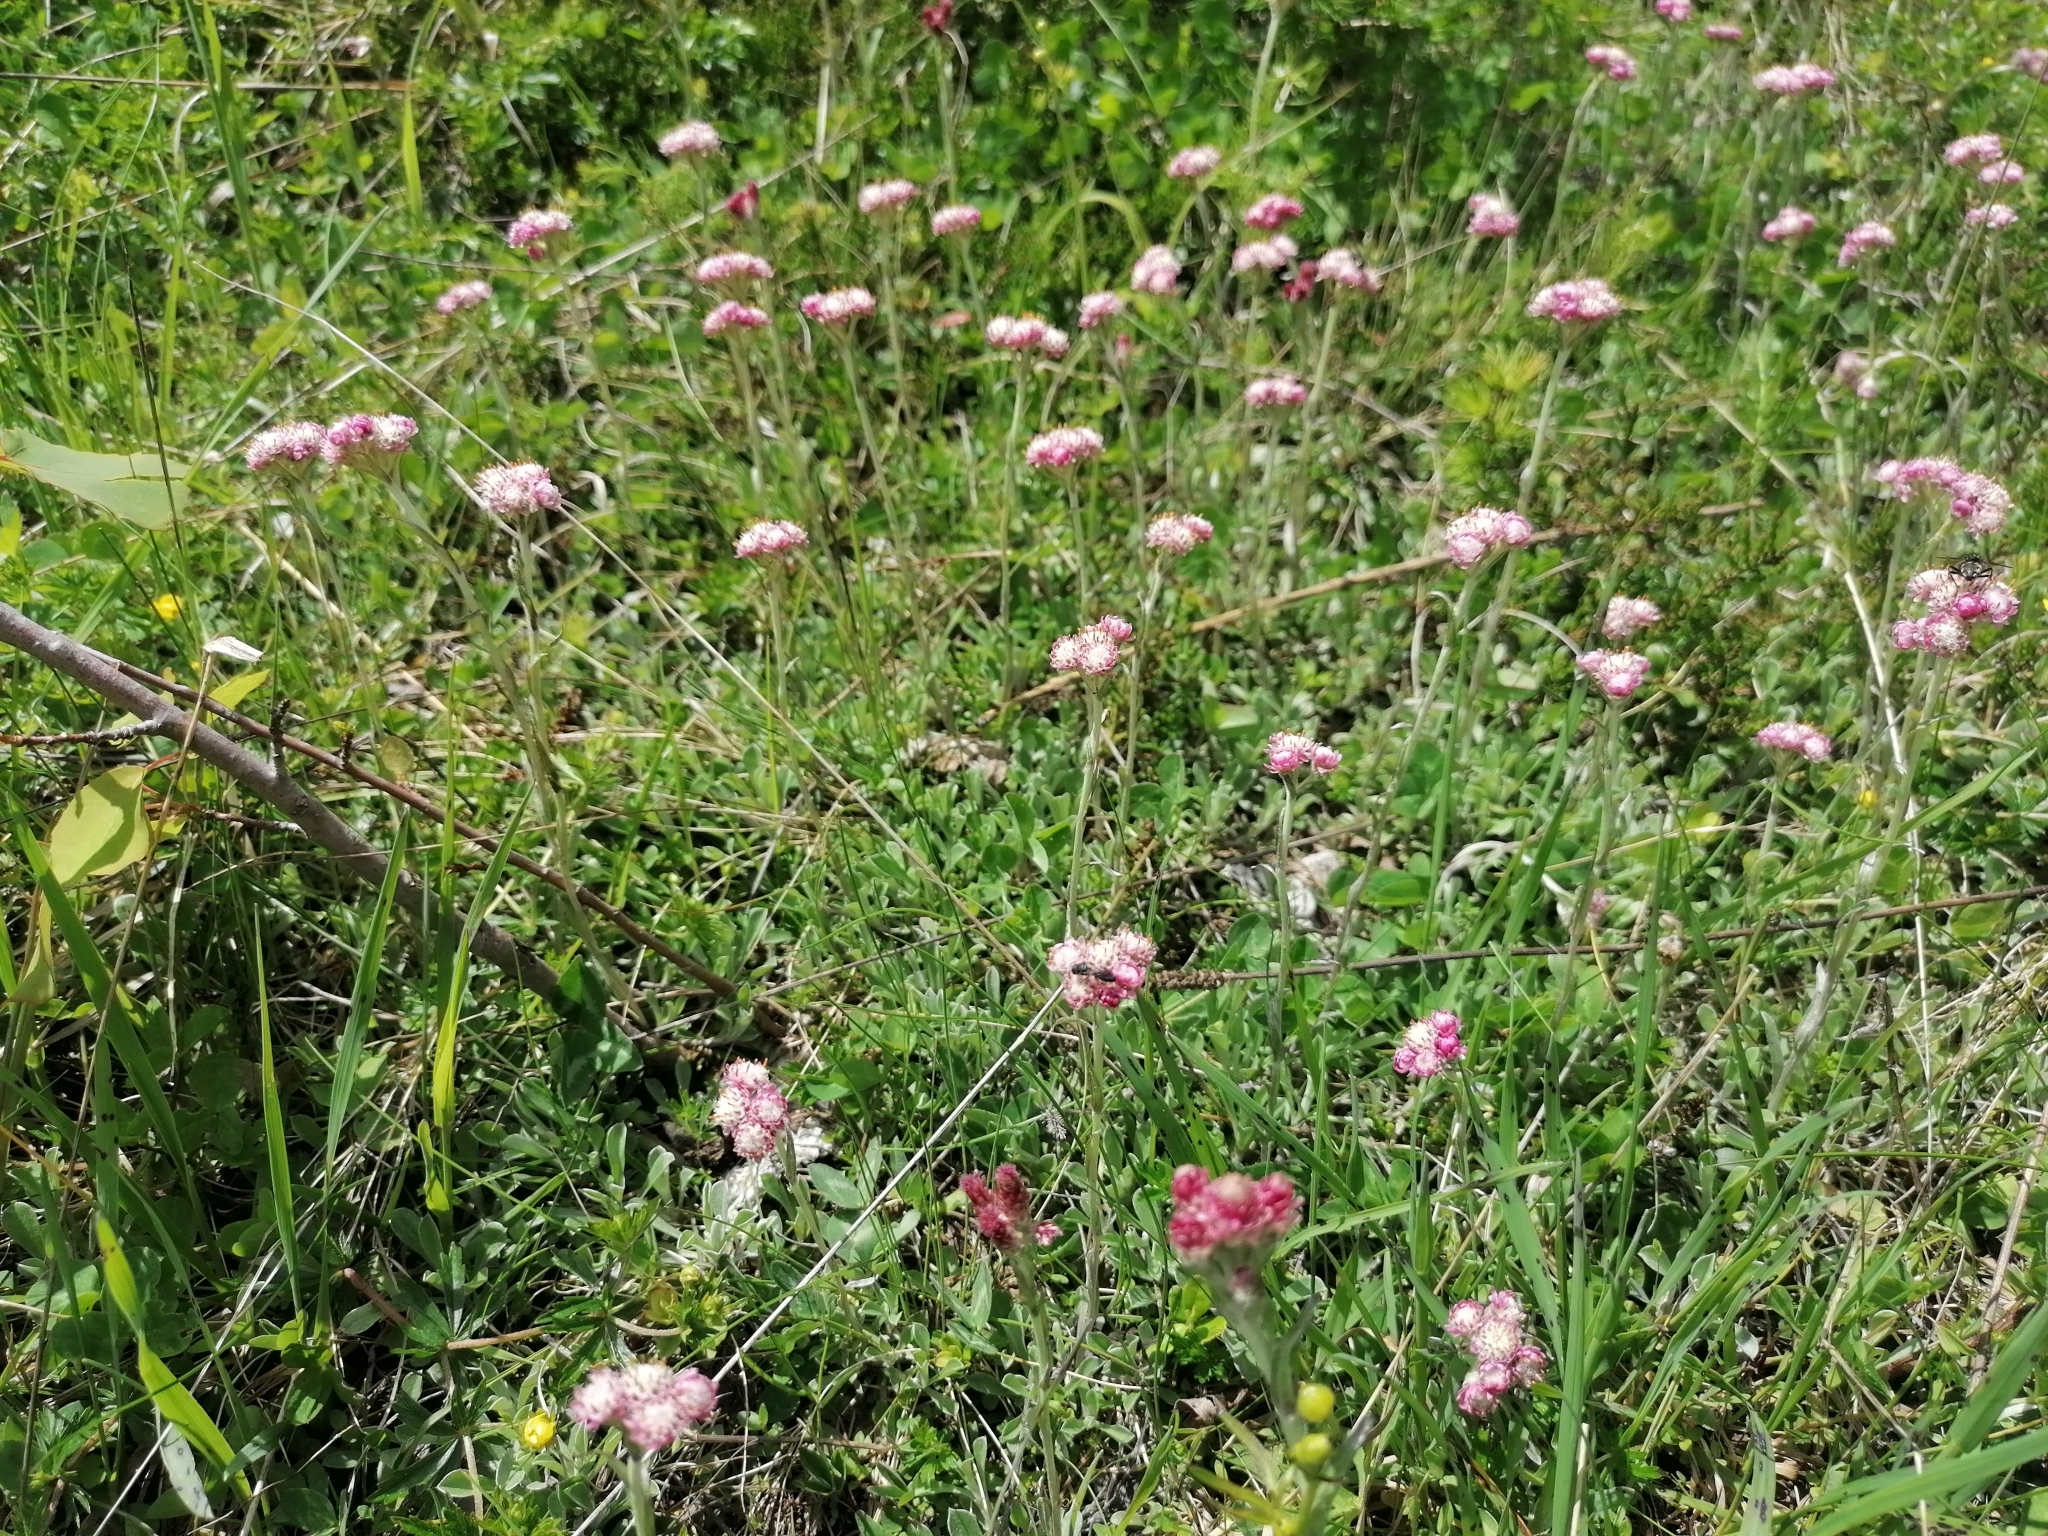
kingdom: Plantae
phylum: Tracheophyta
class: Magnoliopsida
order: Asterales
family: Asteraceae
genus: Antennaria
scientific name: Antennaria dioica
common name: Mountain everlasting
